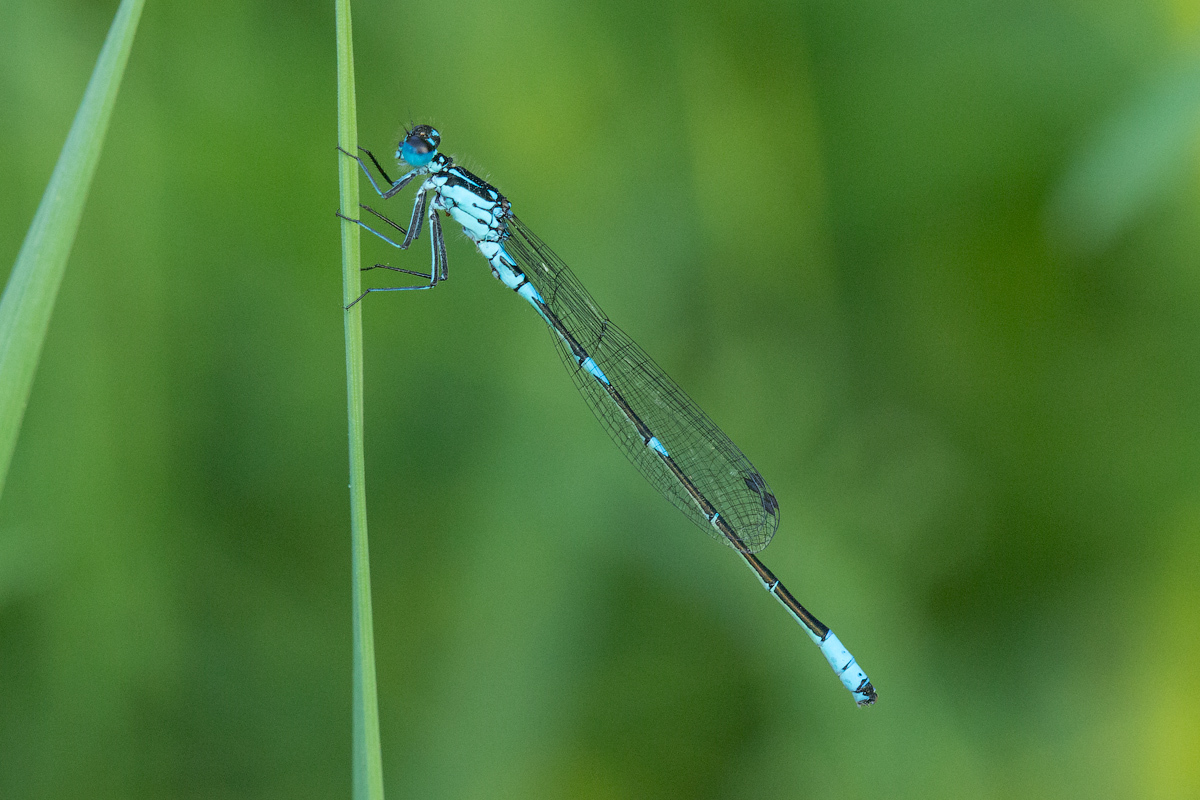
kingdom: Animalia
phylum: Arthropoda
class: Insecta
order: Odonata
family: Coenagrionidae
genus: Coenagrion
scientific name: Coenagrion pulchellum
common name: Variable bluet
